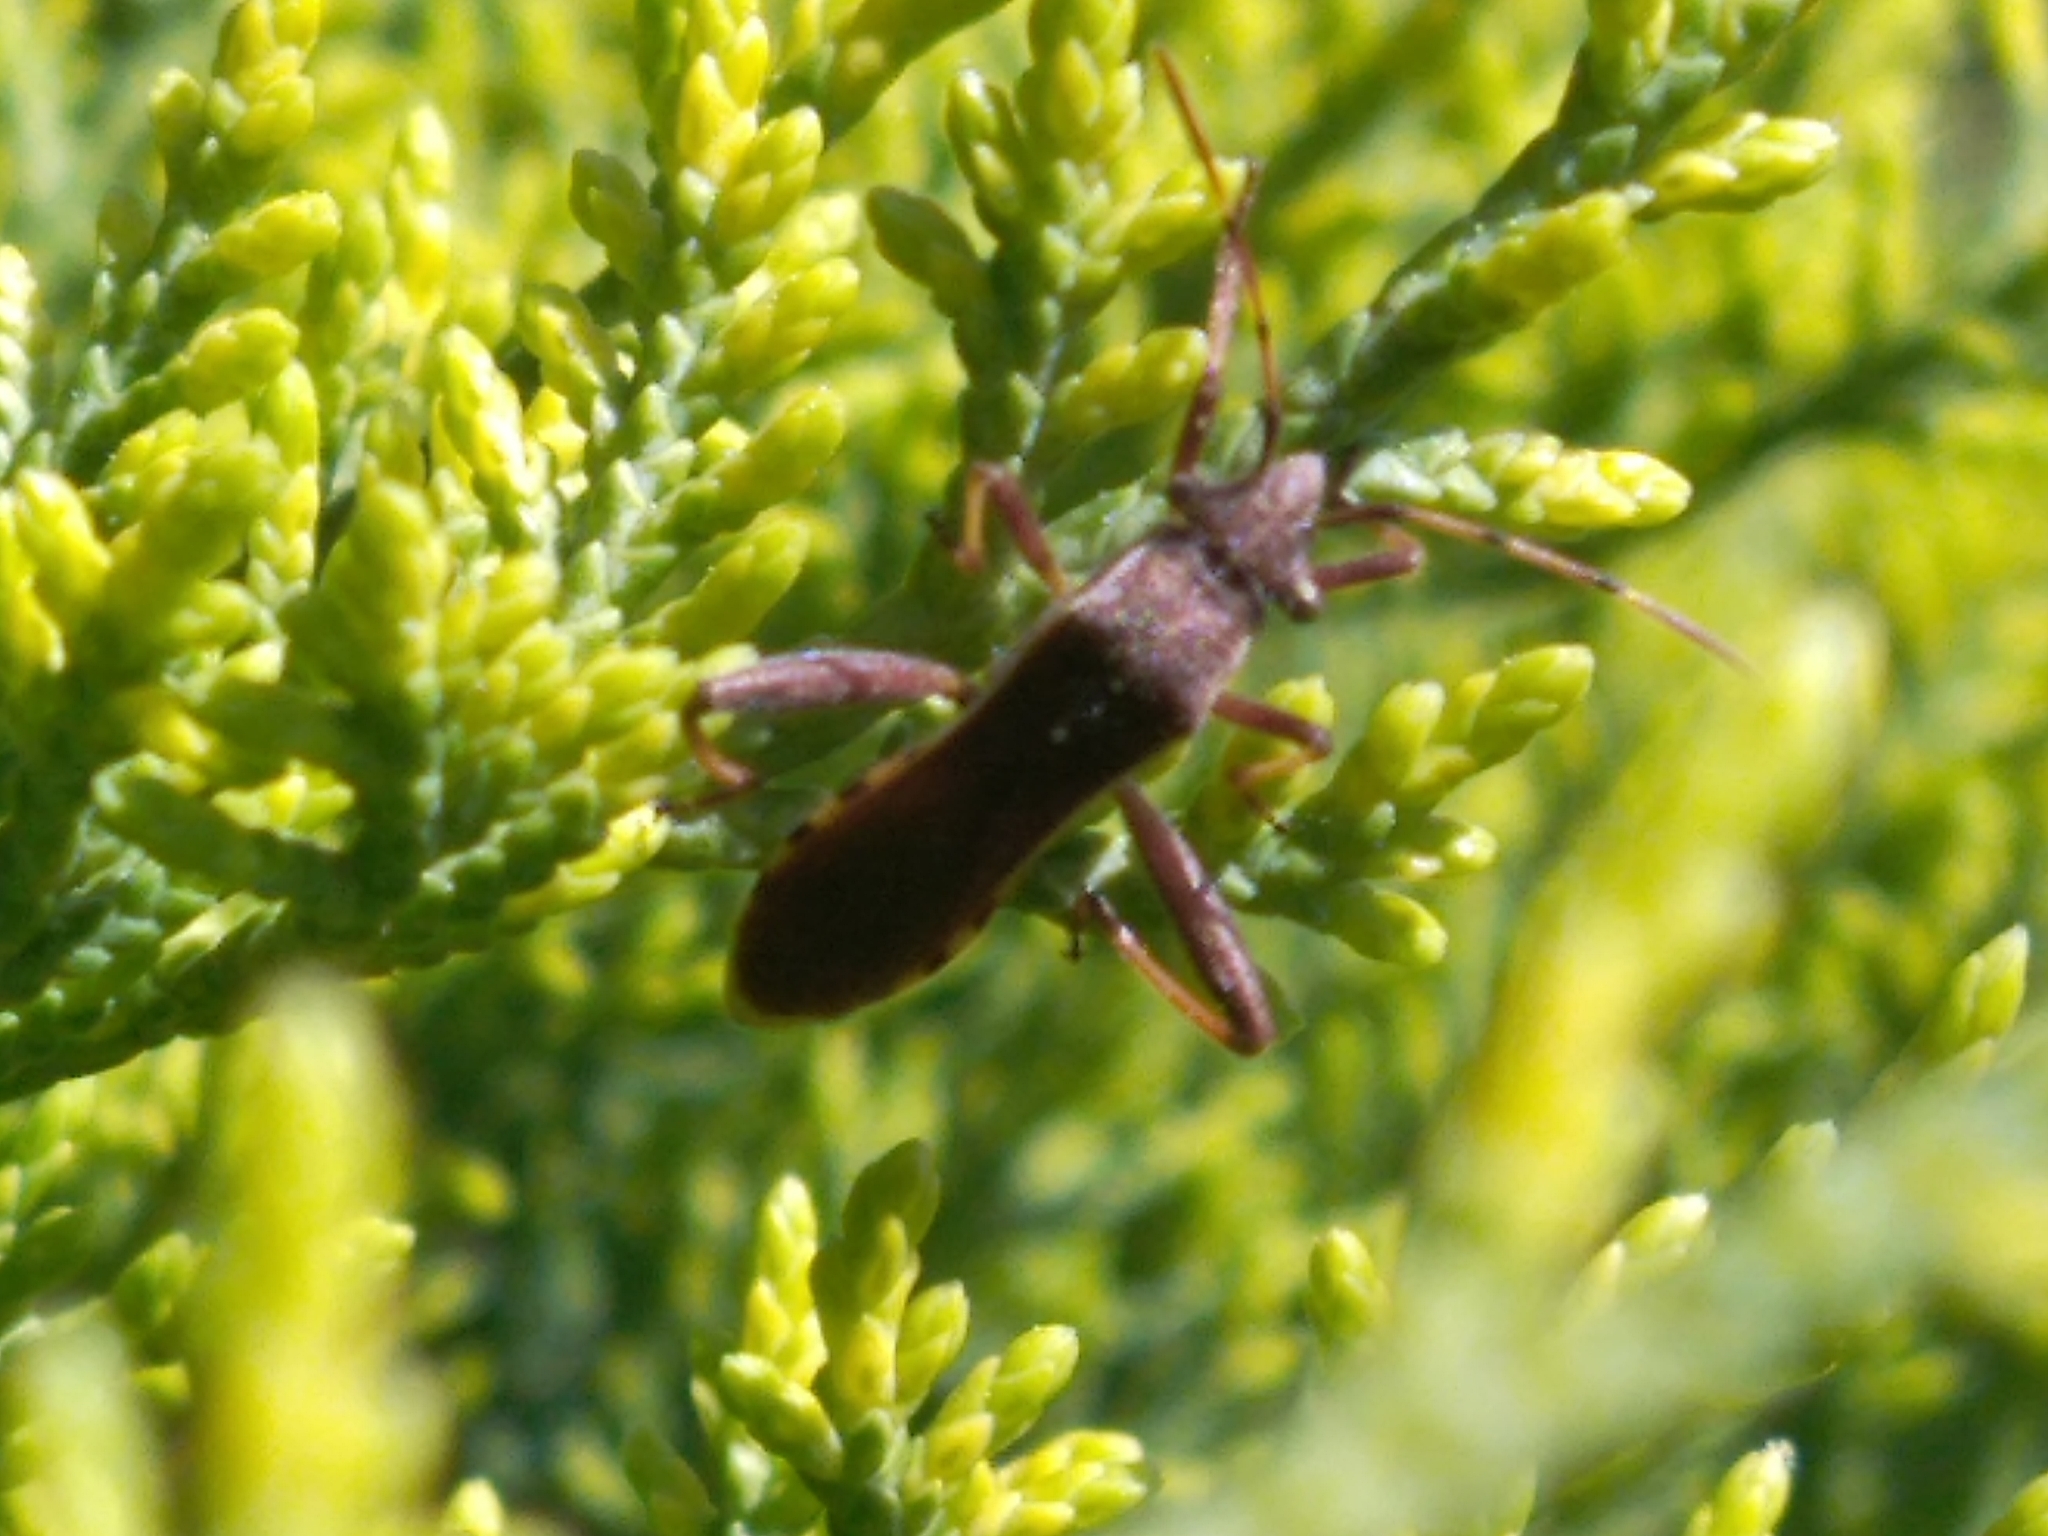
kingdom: Animalia
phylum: Arthropoda
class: Insecta
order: Hemiptera
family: Alydidae
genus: Camptopus
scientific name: Camptopus lateralis
